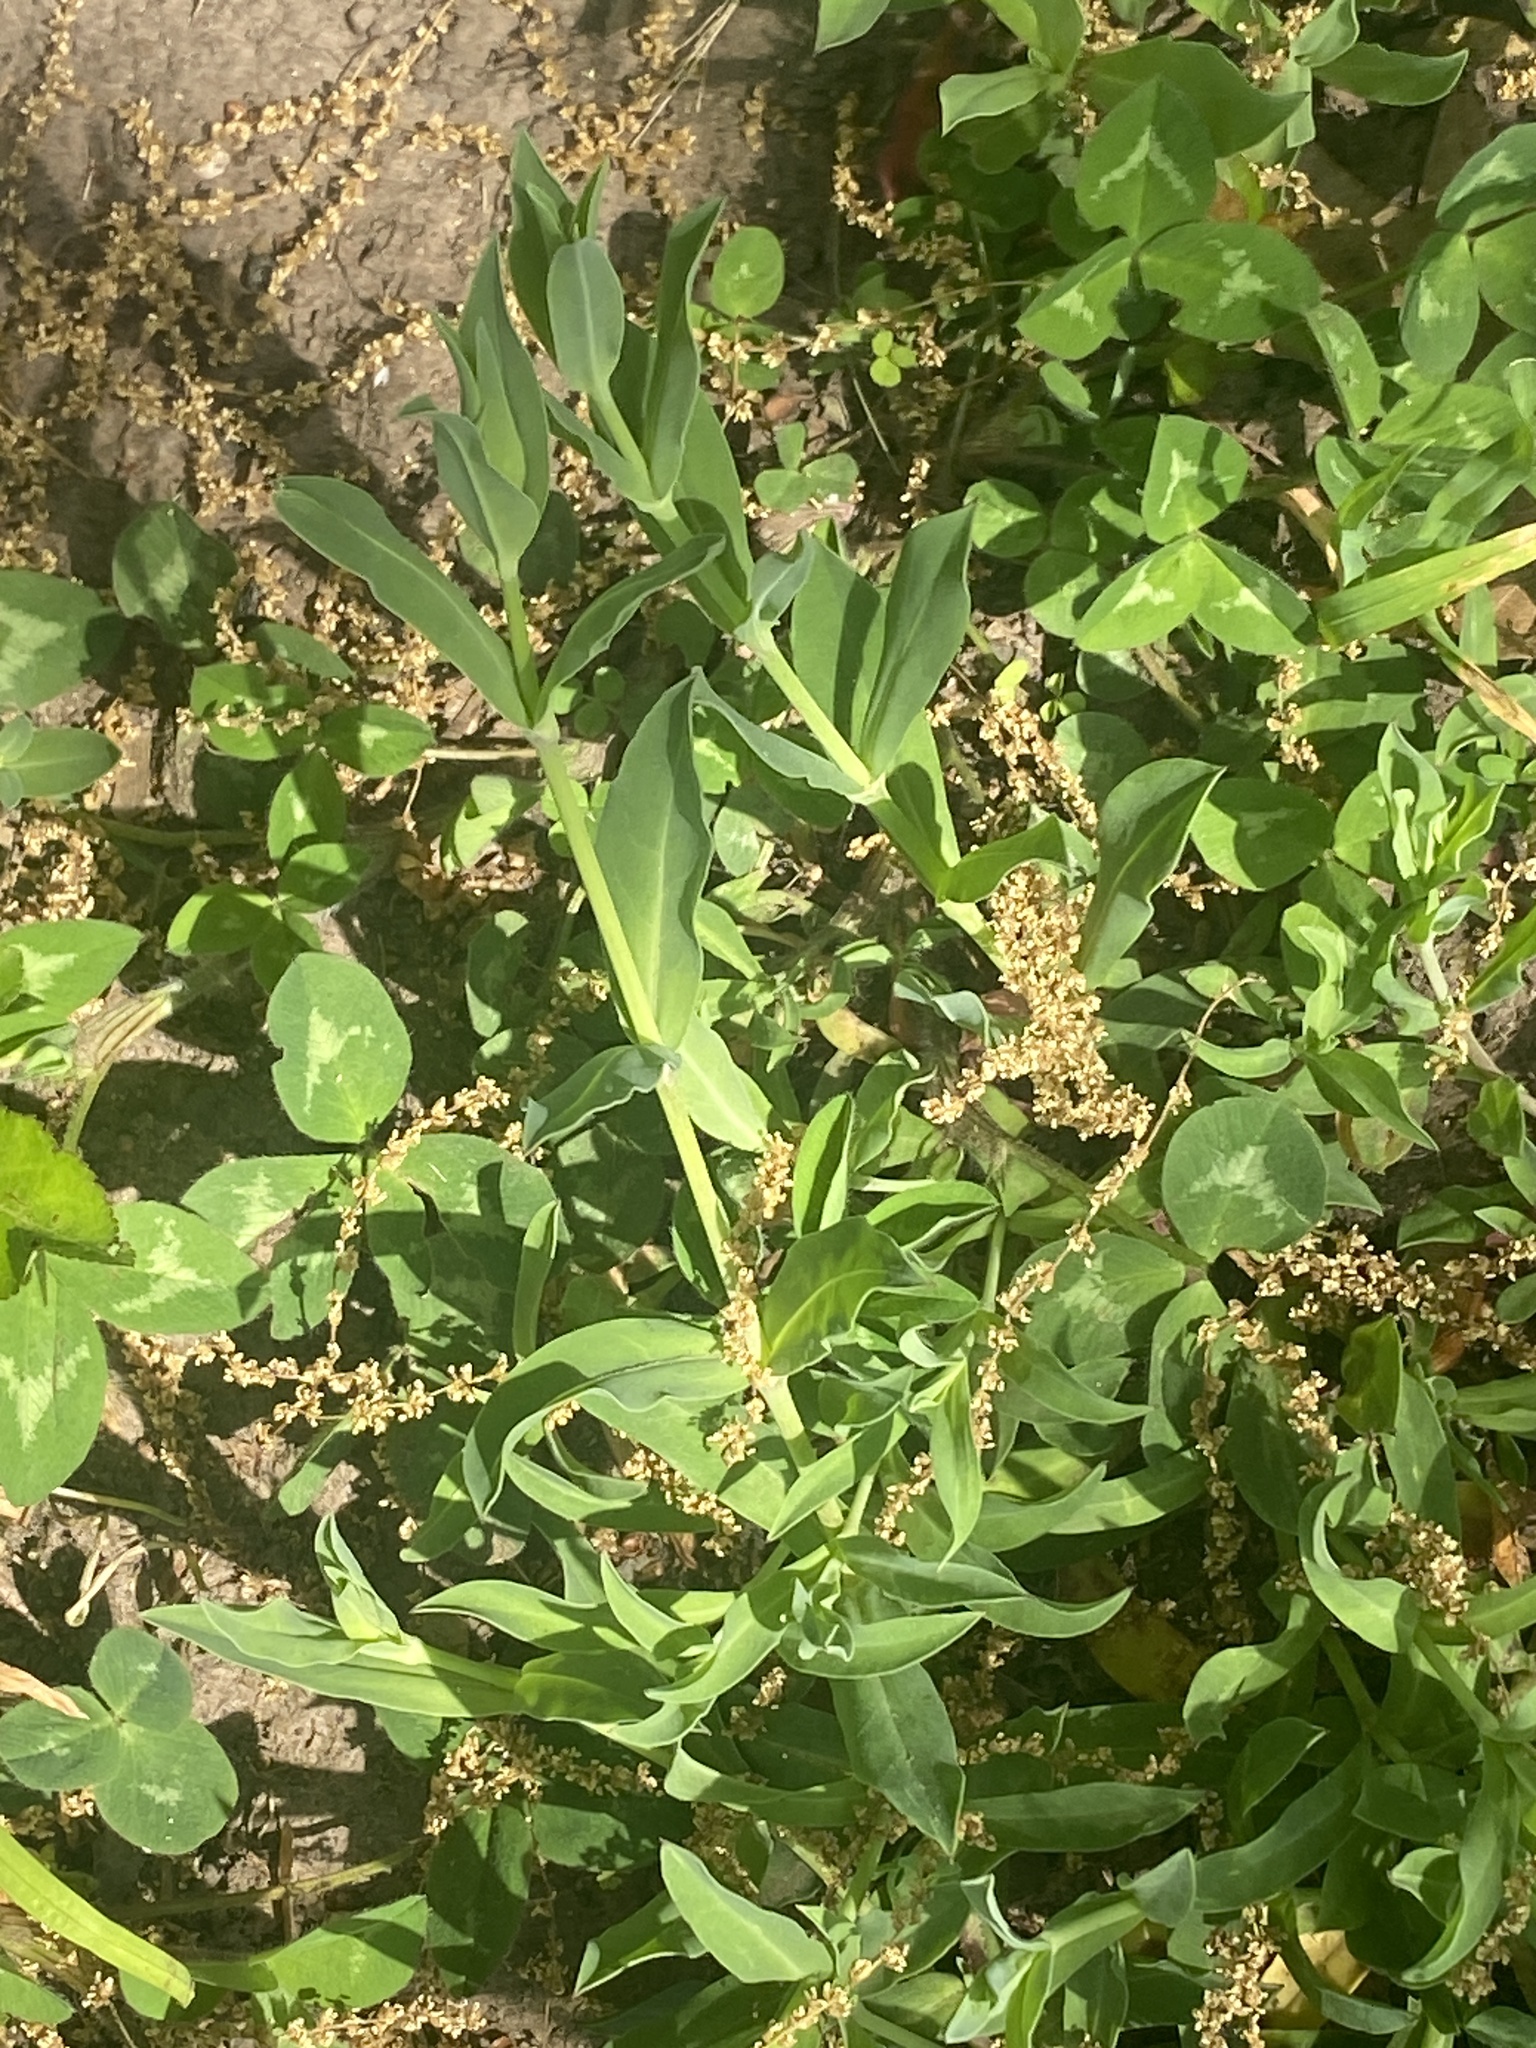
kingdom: Plantae
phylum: Tracheophyta
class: Magnoliopsida
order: Caryophyllales
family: Caryophyllaceae
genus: Silene
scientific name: Silene vulgaris
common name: Bladder campion
